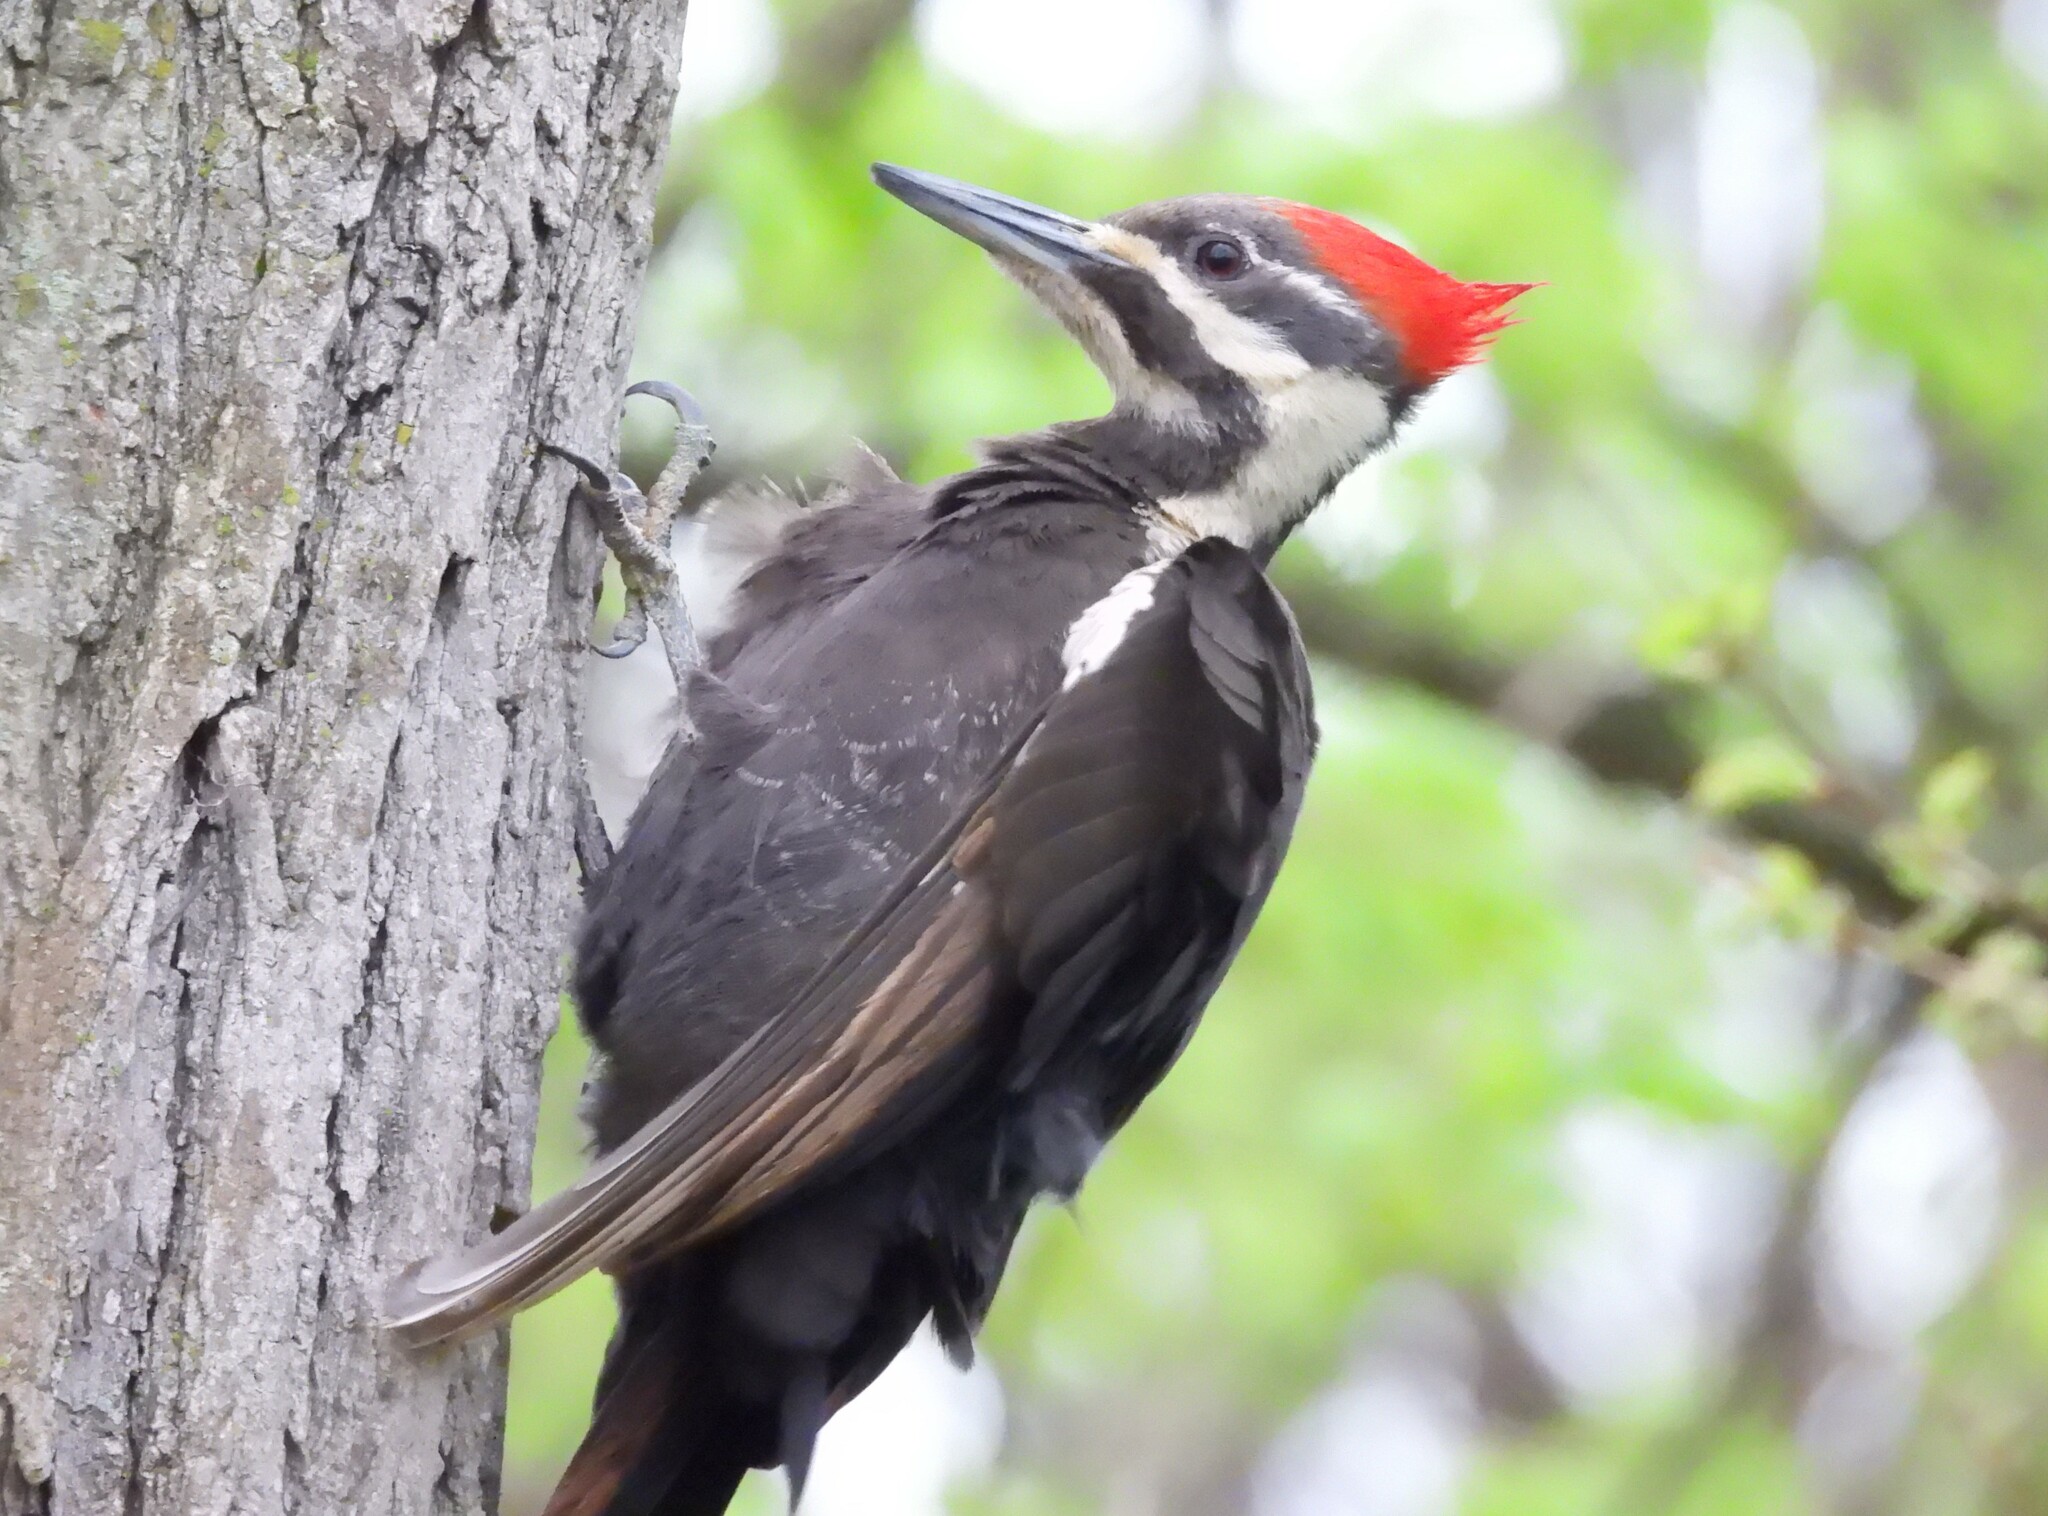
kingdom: Animalia
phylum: Chordata
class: Aves
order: Piciformes
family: Picidae
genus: Dryocopus
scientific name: Dryocopus pileatus
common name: Pileated woodpecker
